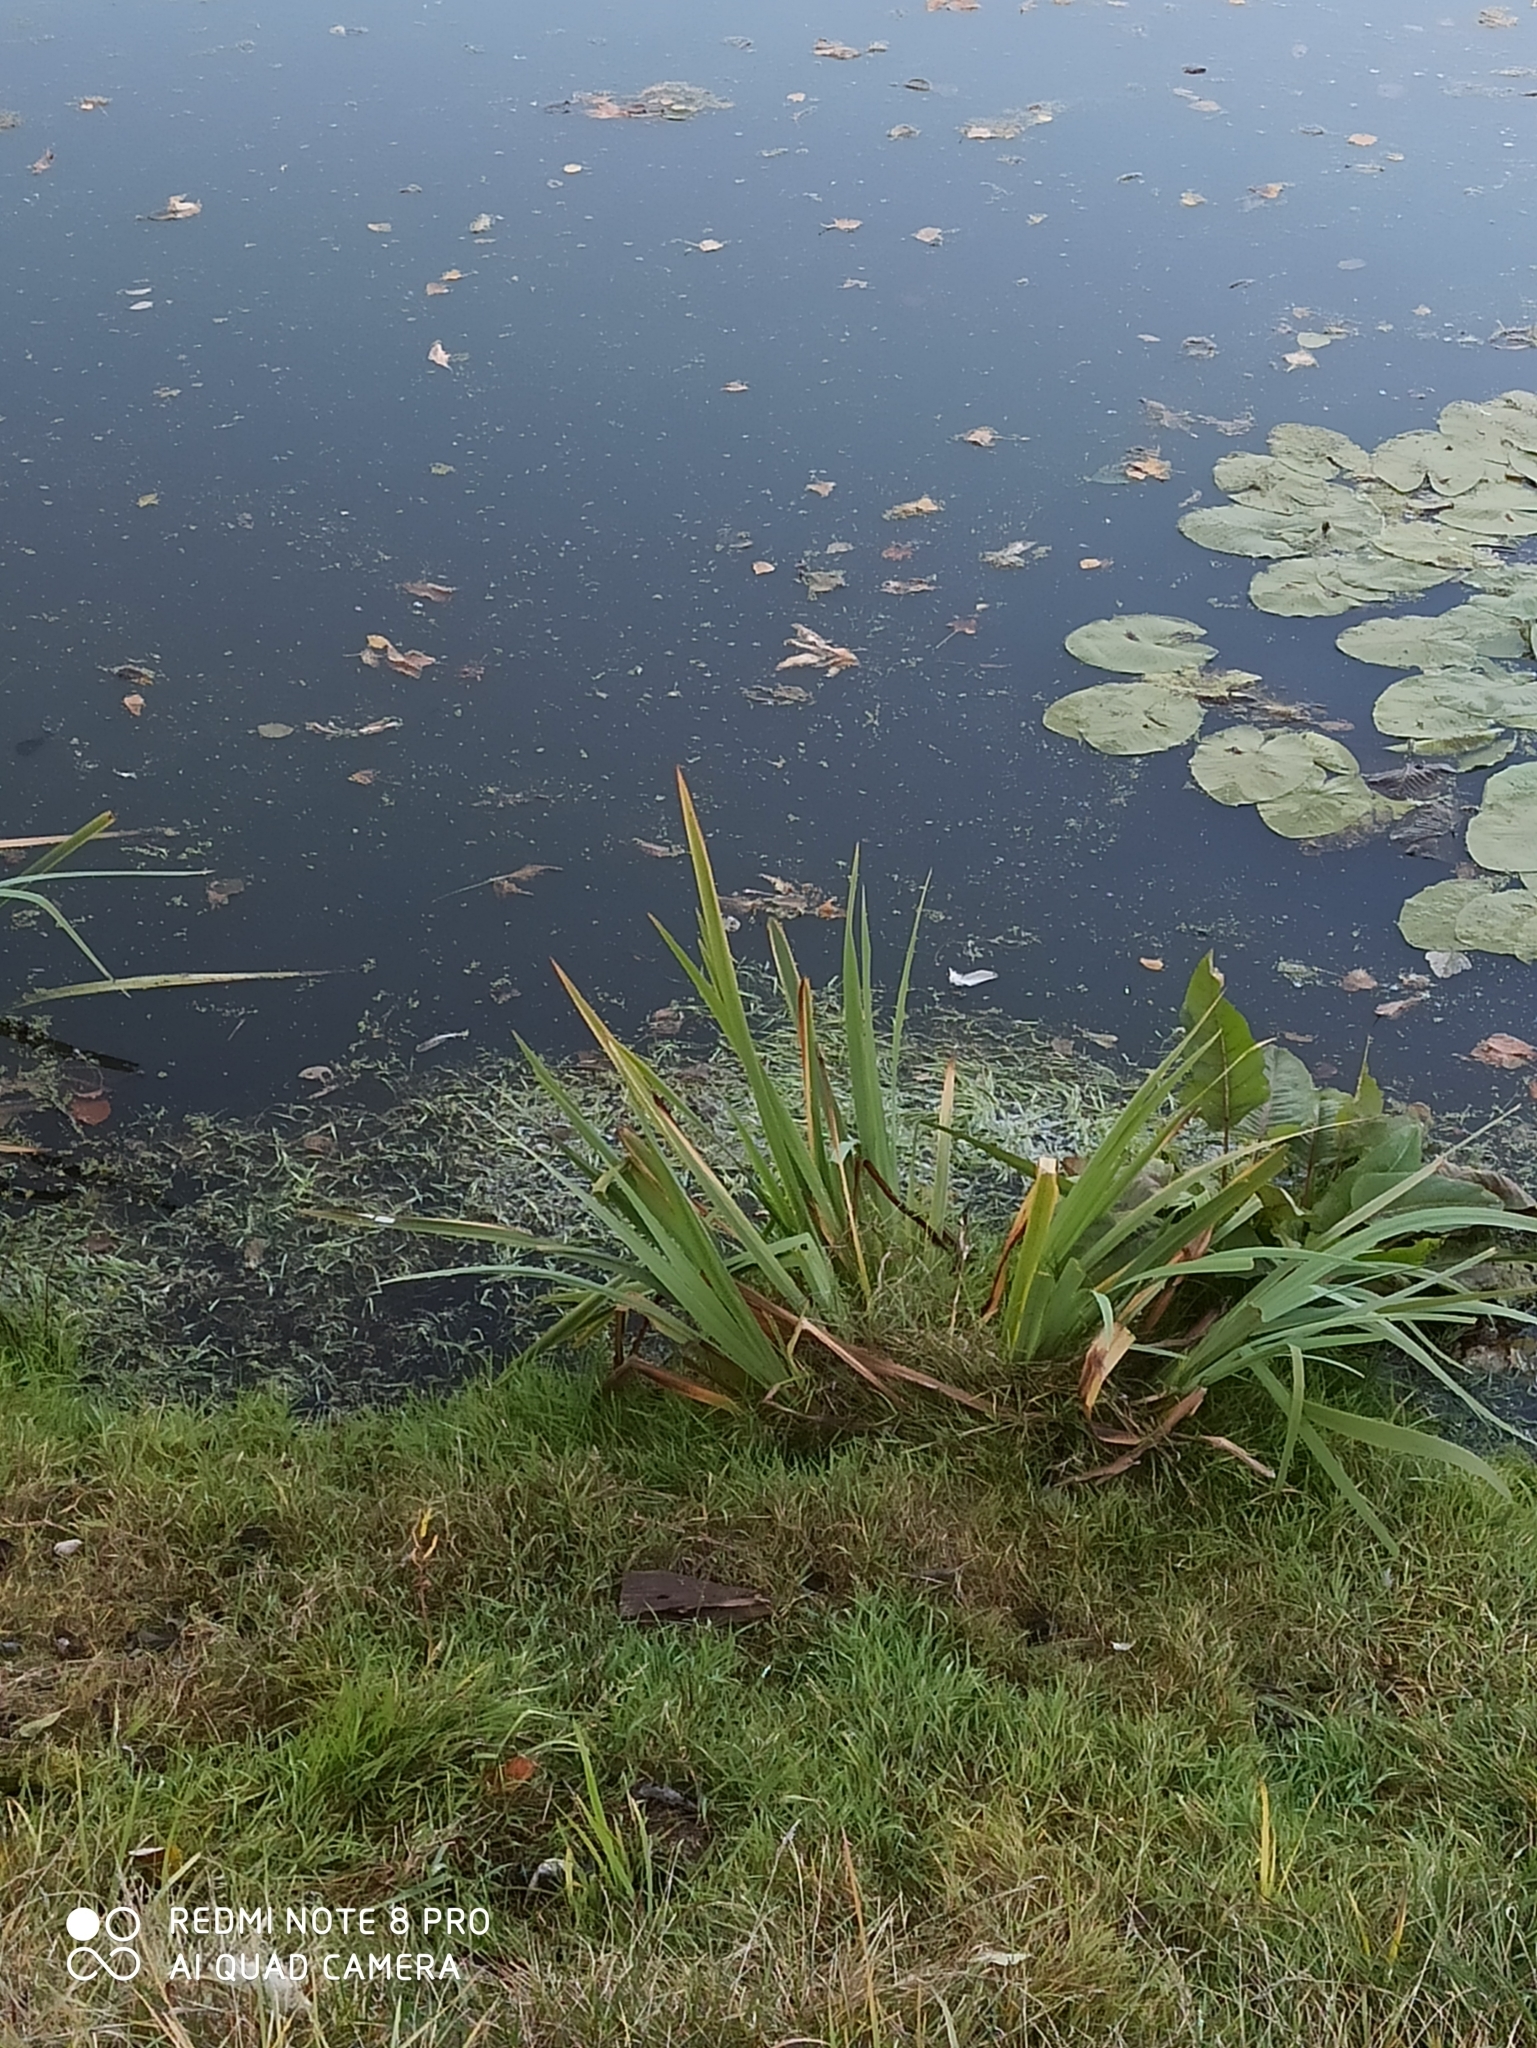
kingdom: Plantae
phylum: Tracheophyta
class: Liliopsida
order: Asparagales
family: Iridaceae
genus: Iris
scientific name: Iris pseudacorus
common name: Yellow flag
